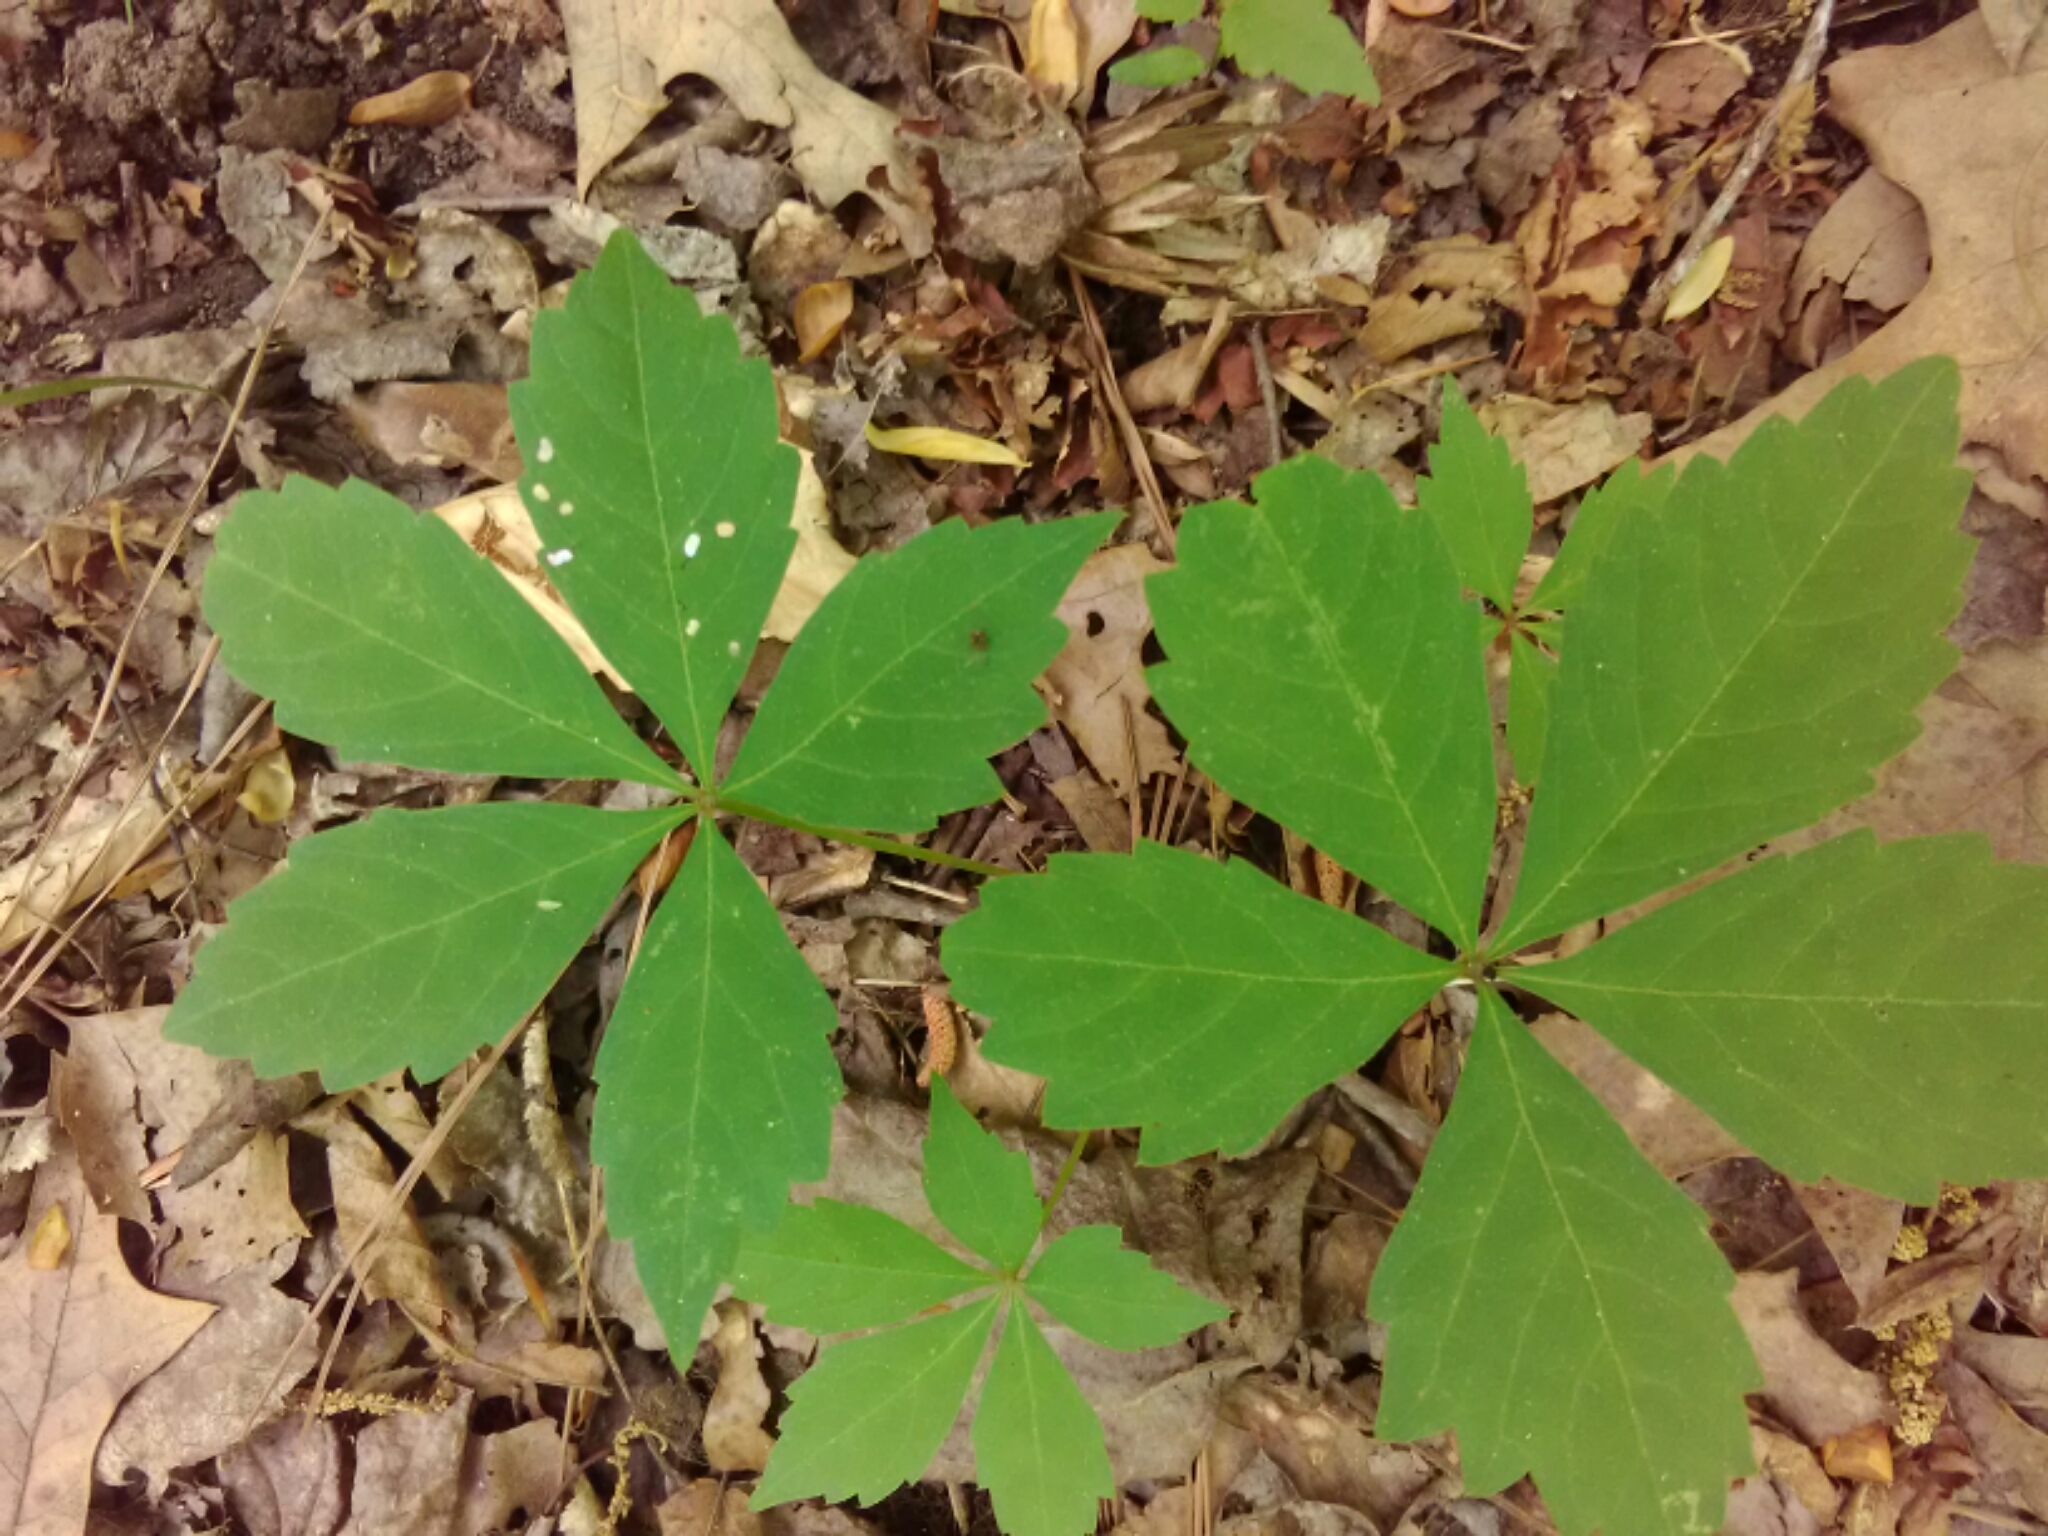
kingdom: Plantae
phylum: Tracheophyta
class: Magnoliopsida
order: Vitales
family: Vitaceae
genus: Parthenocissus
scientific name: Parthenocissus quinquefolia
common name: Virginia-creeper
